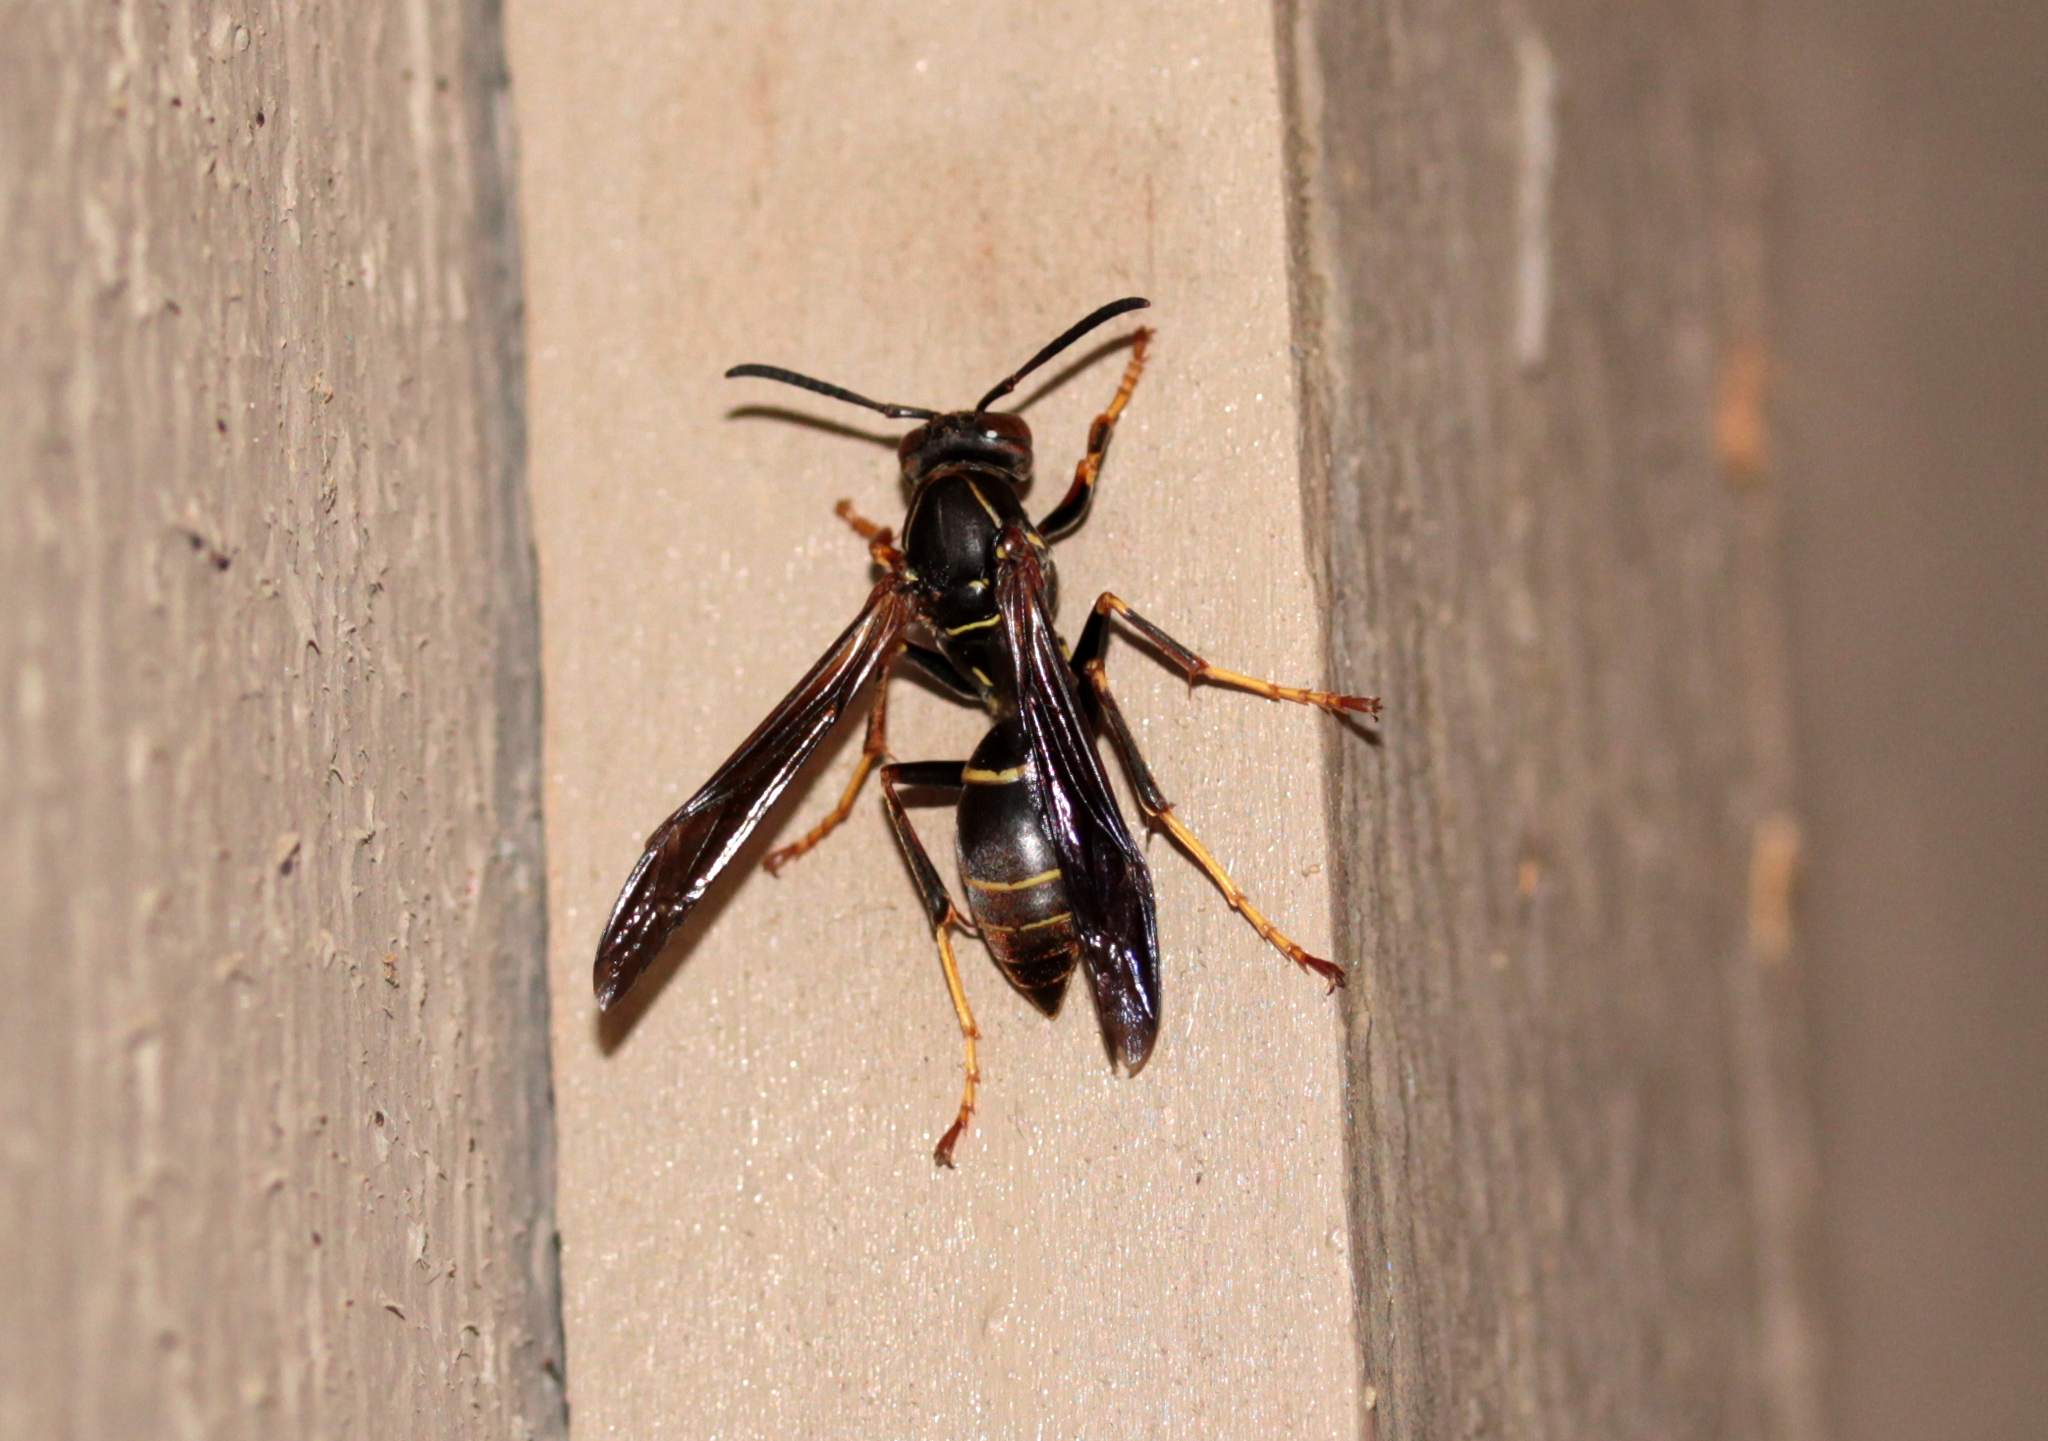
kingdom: Animalia
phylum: Arthropoda
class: Insecta
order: Hymenoptera
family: Eumenidae
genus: Polistes
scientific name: Polistes fuscatus
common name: Dark paper wasp
